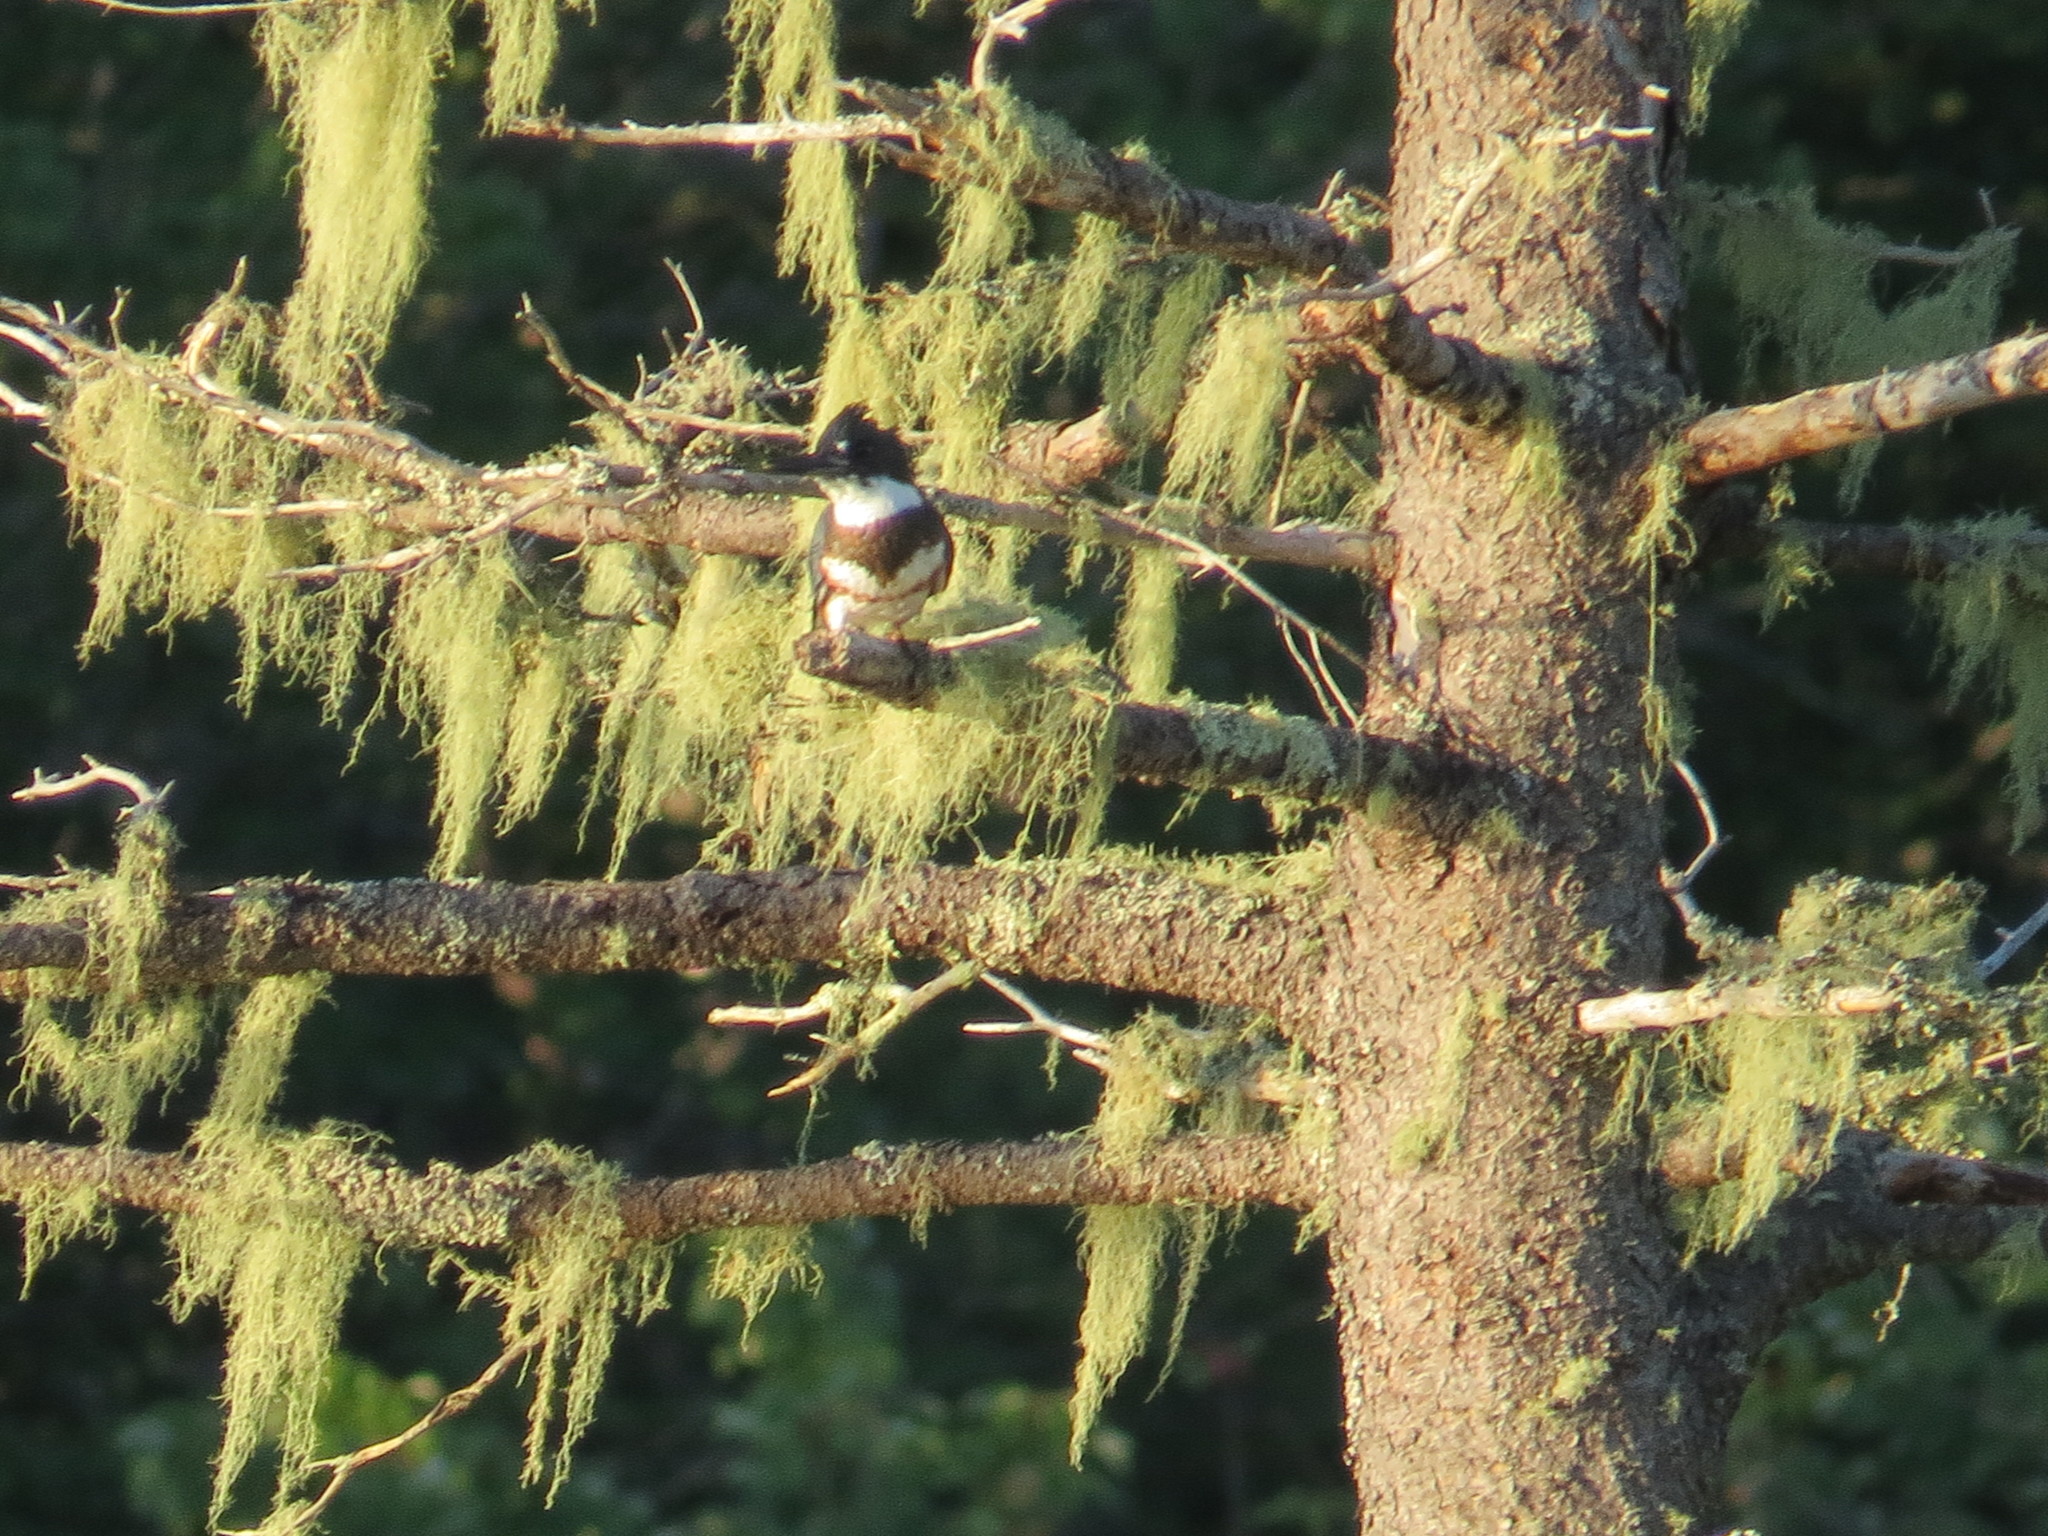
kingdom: Animalia
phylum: Chordata
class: Aves
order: Coraciiformes
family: Alcedinidae
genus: Megaceryle
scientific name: Megaceryle alcyon
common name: Belted kingfisher
